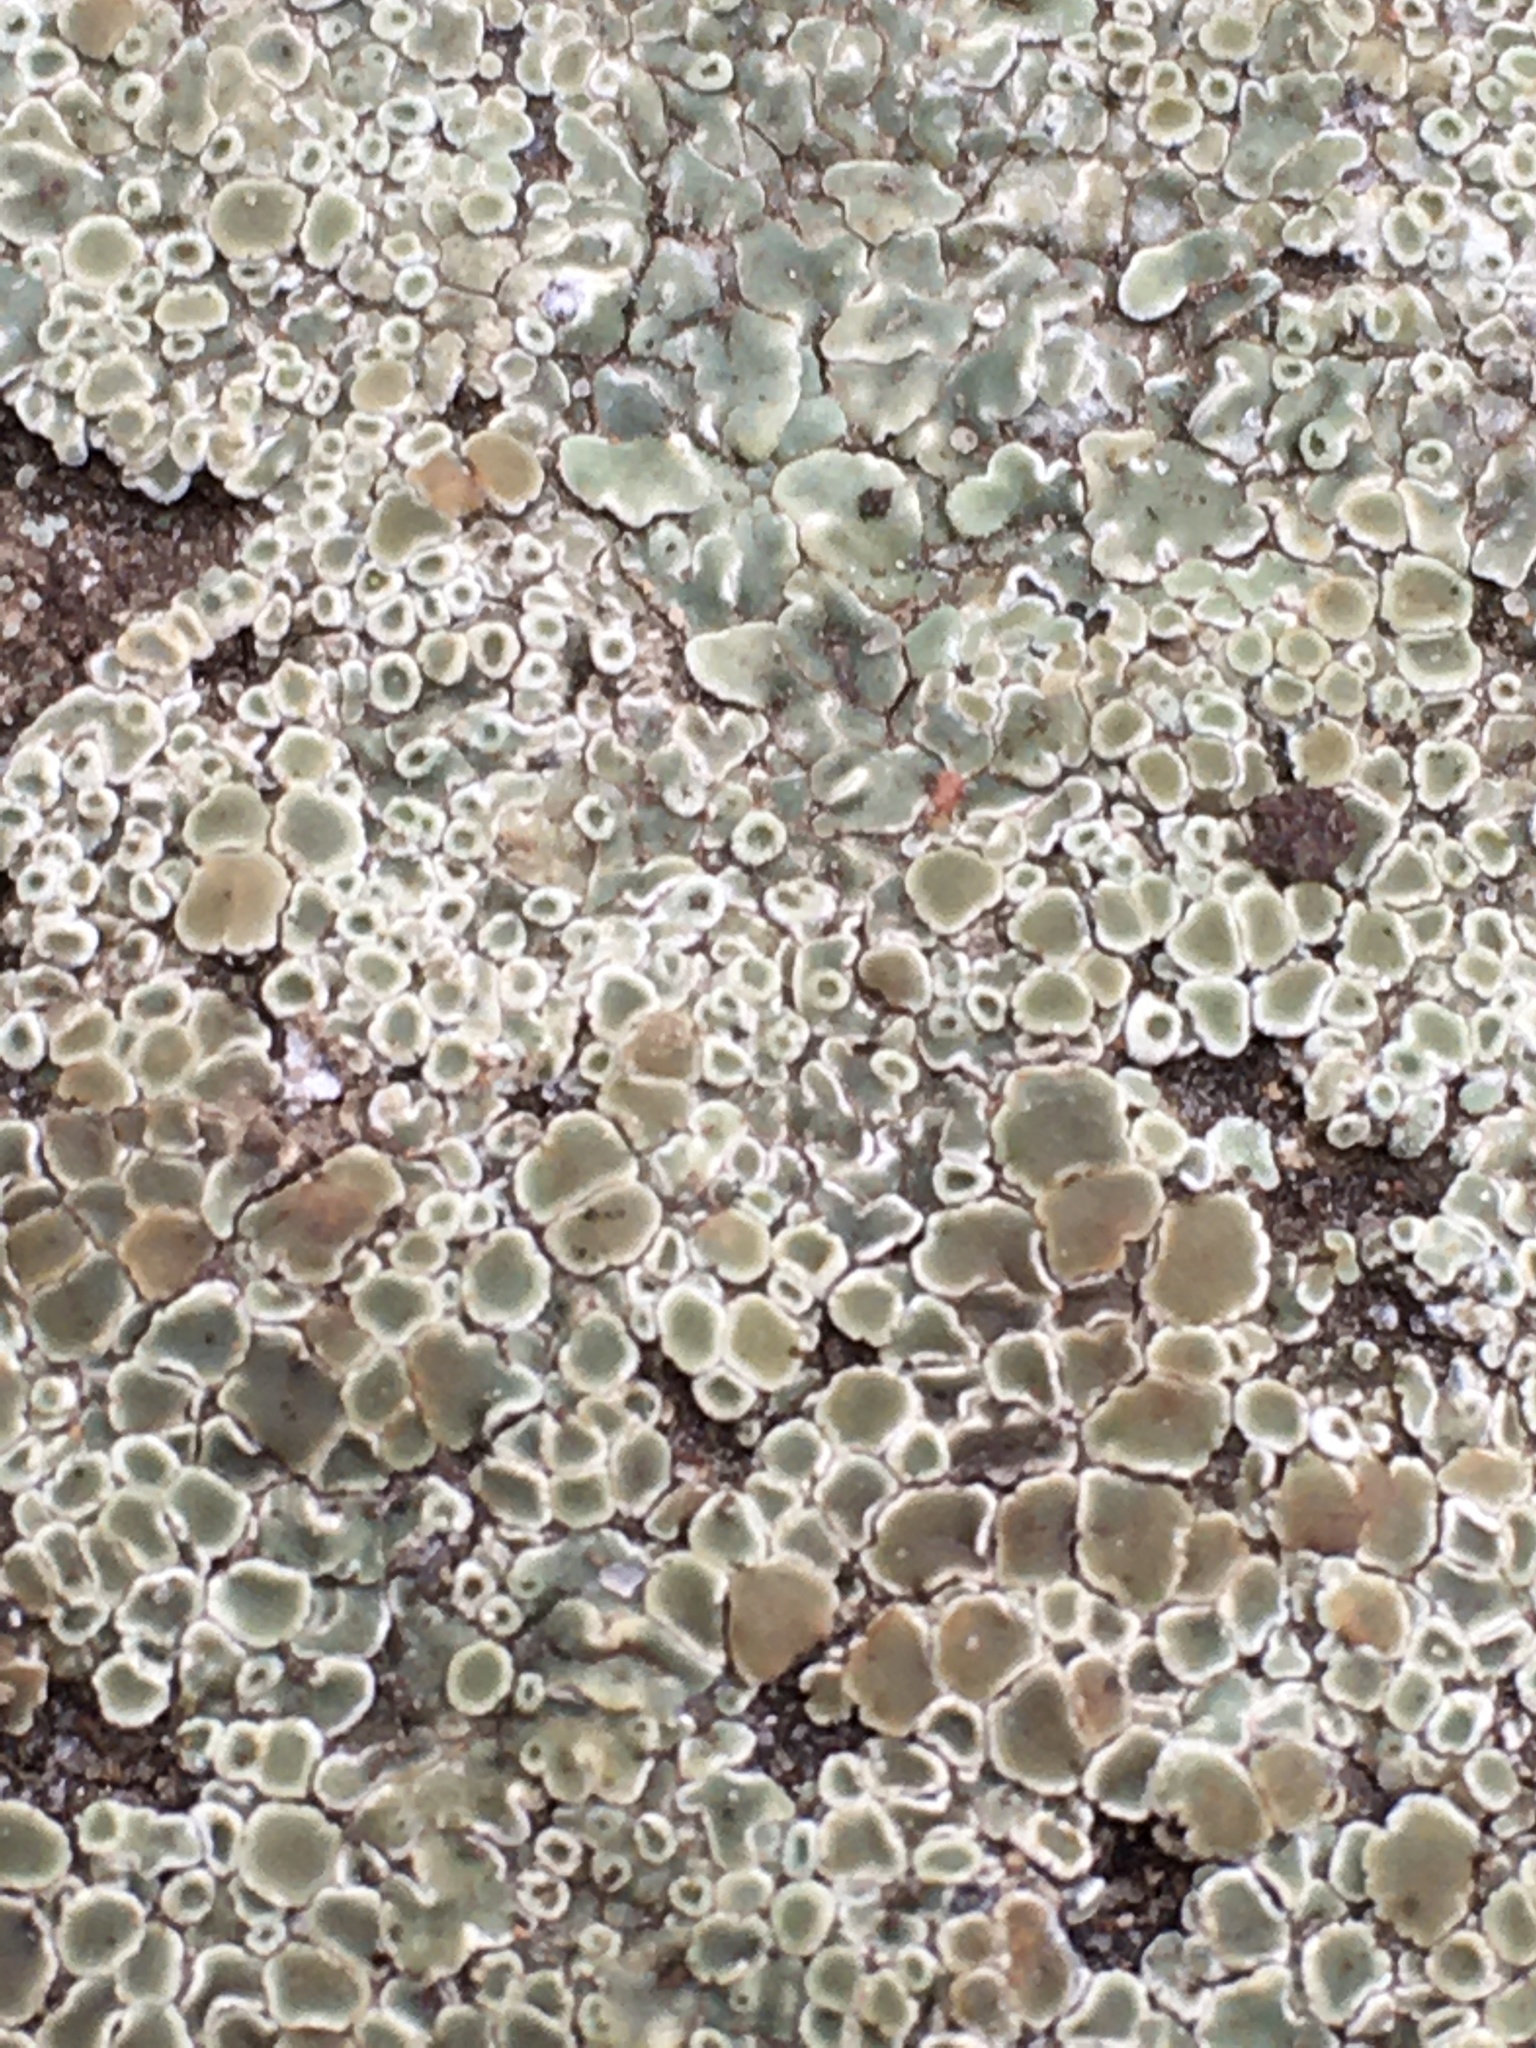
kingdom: Fungi
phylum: Ascomycota
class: Lecanoromycetes
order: Lecanorales
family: Lecanoraceae
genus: Protoparmeliopsis
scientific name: Protoparmeliopsis muralis
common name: Stonewall rim lichen
